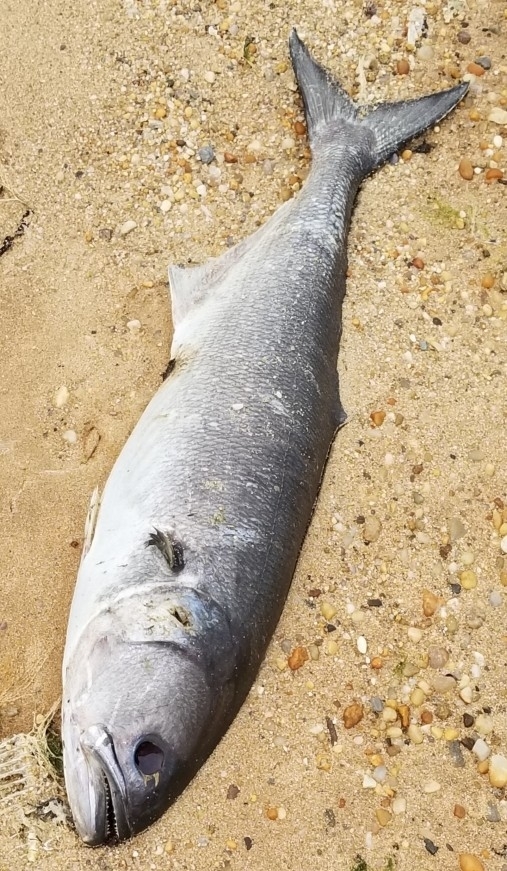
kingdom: Animalia
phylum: Chordata
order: Perciformes
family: Pomatomidae
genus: Pomatomus
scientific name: Pomatomus saltatrix
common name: Bluefish
